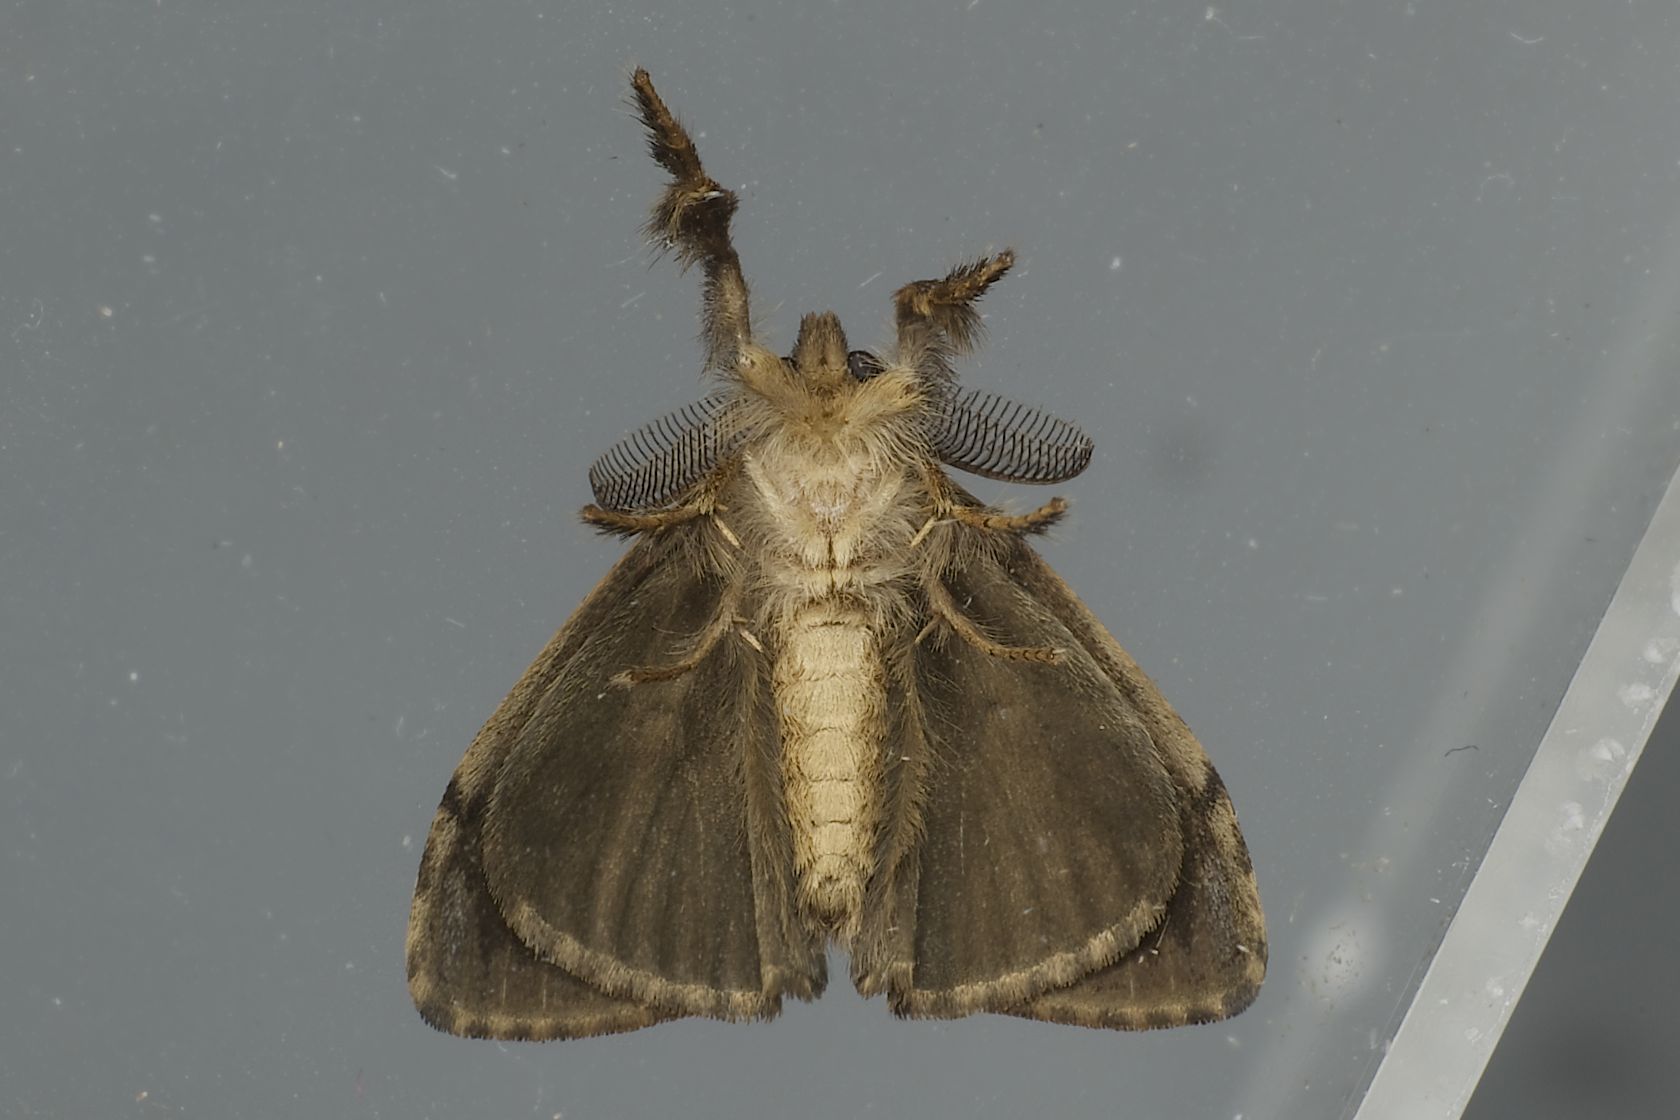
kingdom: Animalia
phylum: Arthropoda
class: Insecta
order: Lepidoptera
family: Erebidae
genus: Orgyia
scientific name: Orgyia postica
